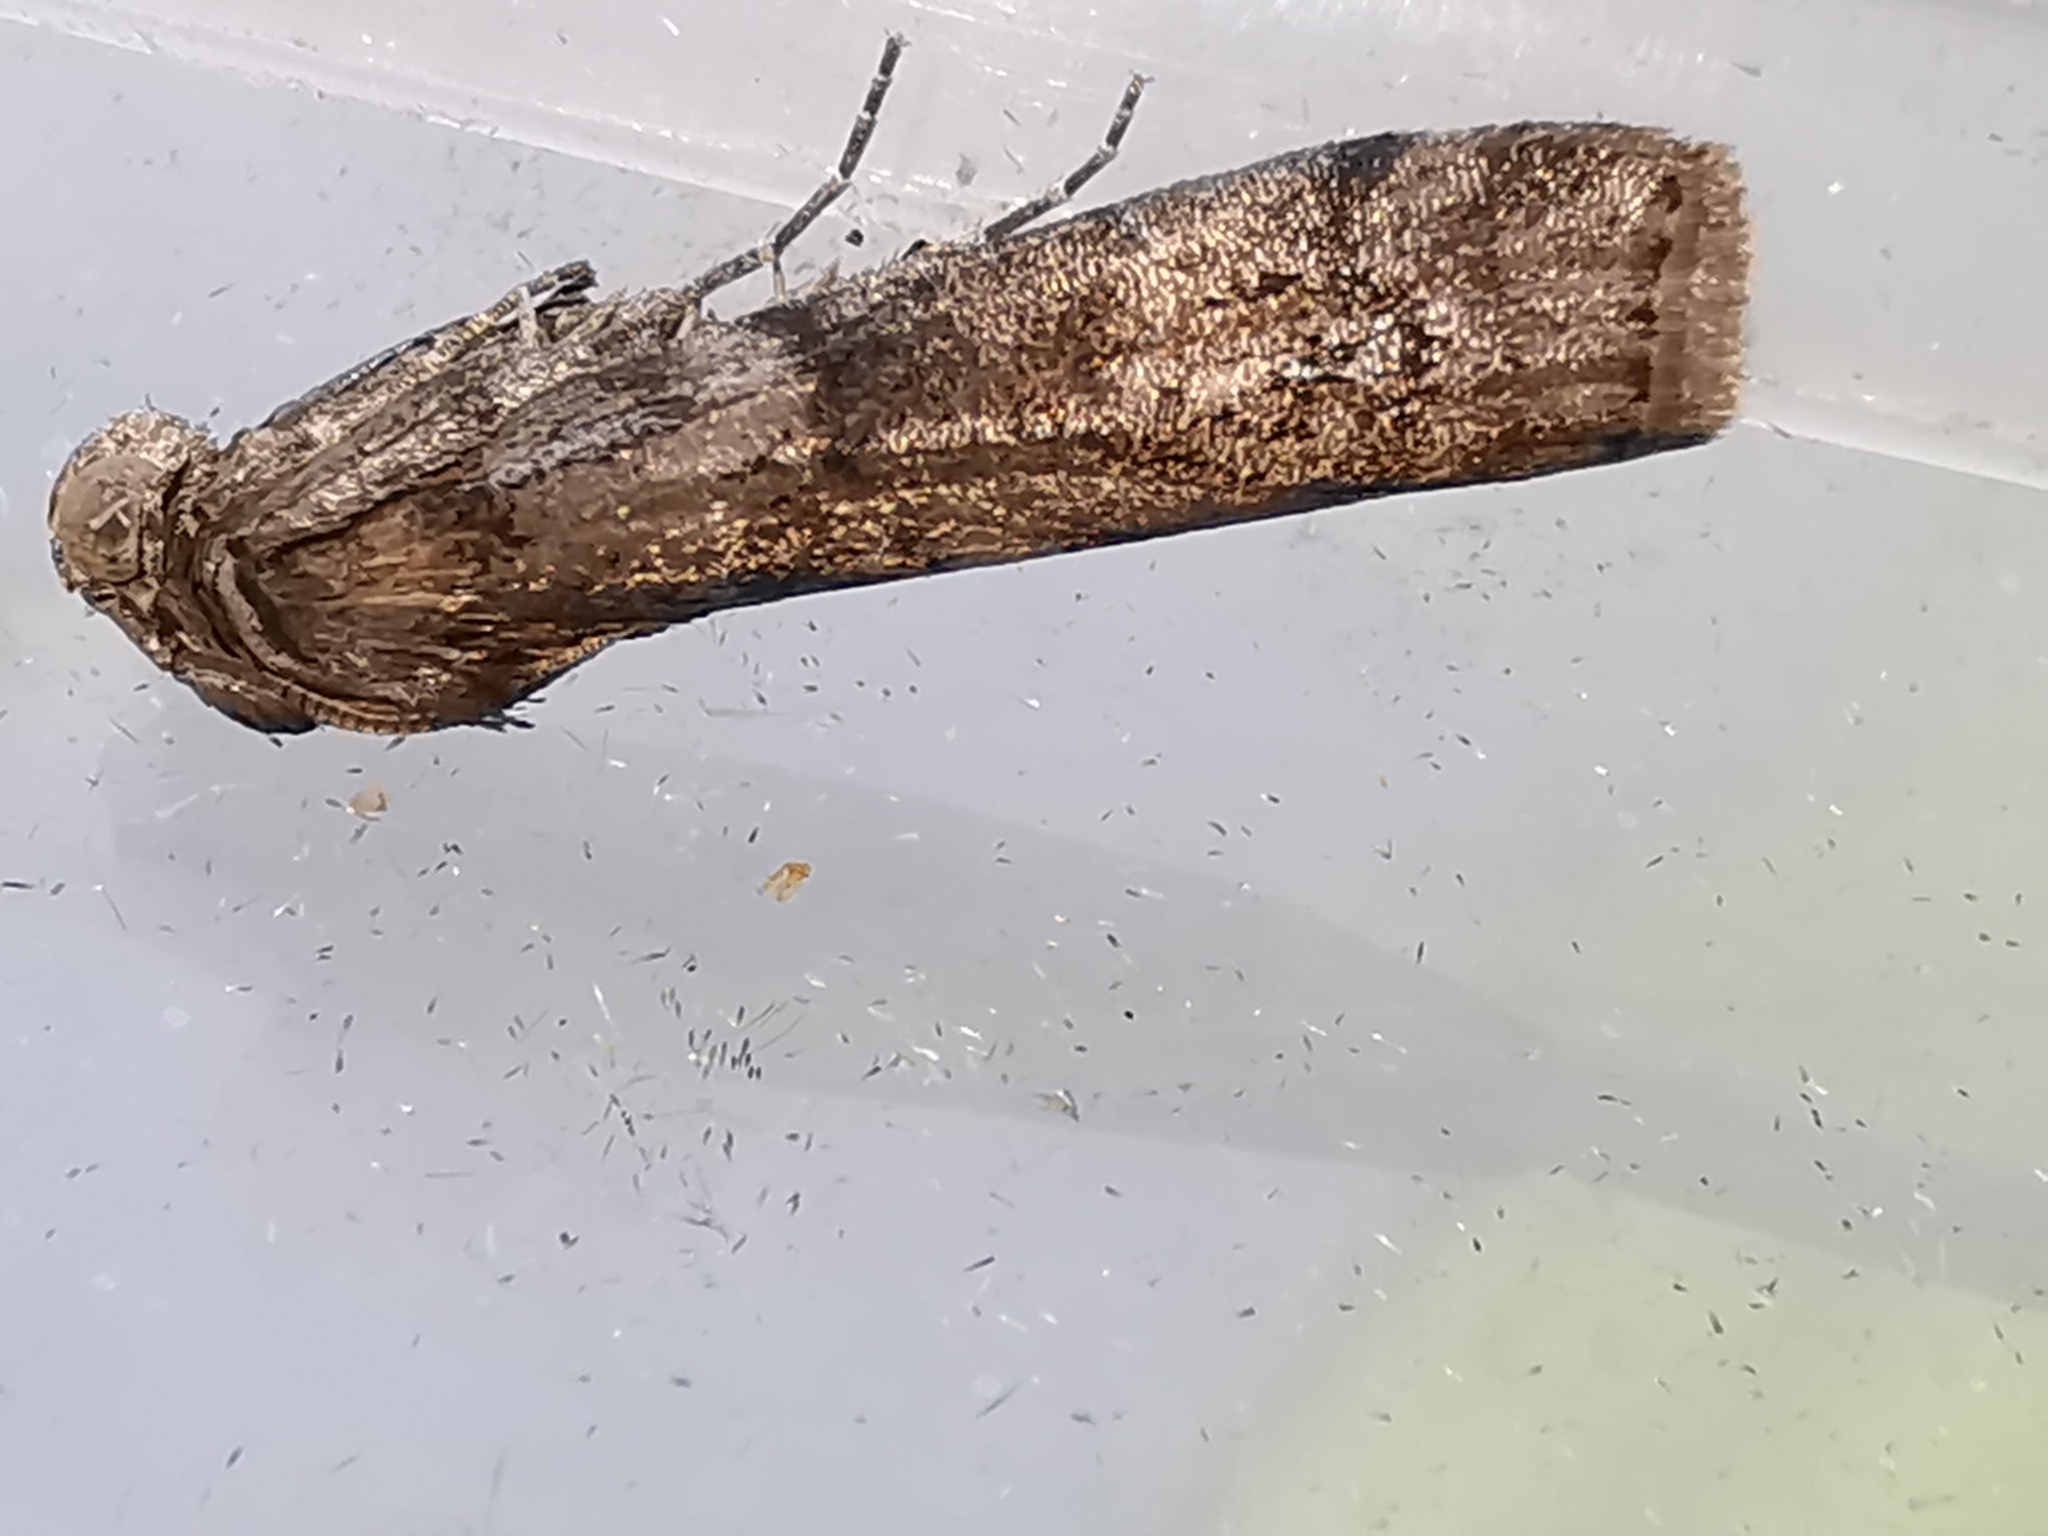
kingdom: Animalia
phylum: Arthropoda
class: Insecta
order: Lepidoptera
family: Pyralidae
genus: Phycita
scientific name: Phycita roborella
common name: Dotted oak knot-horn
